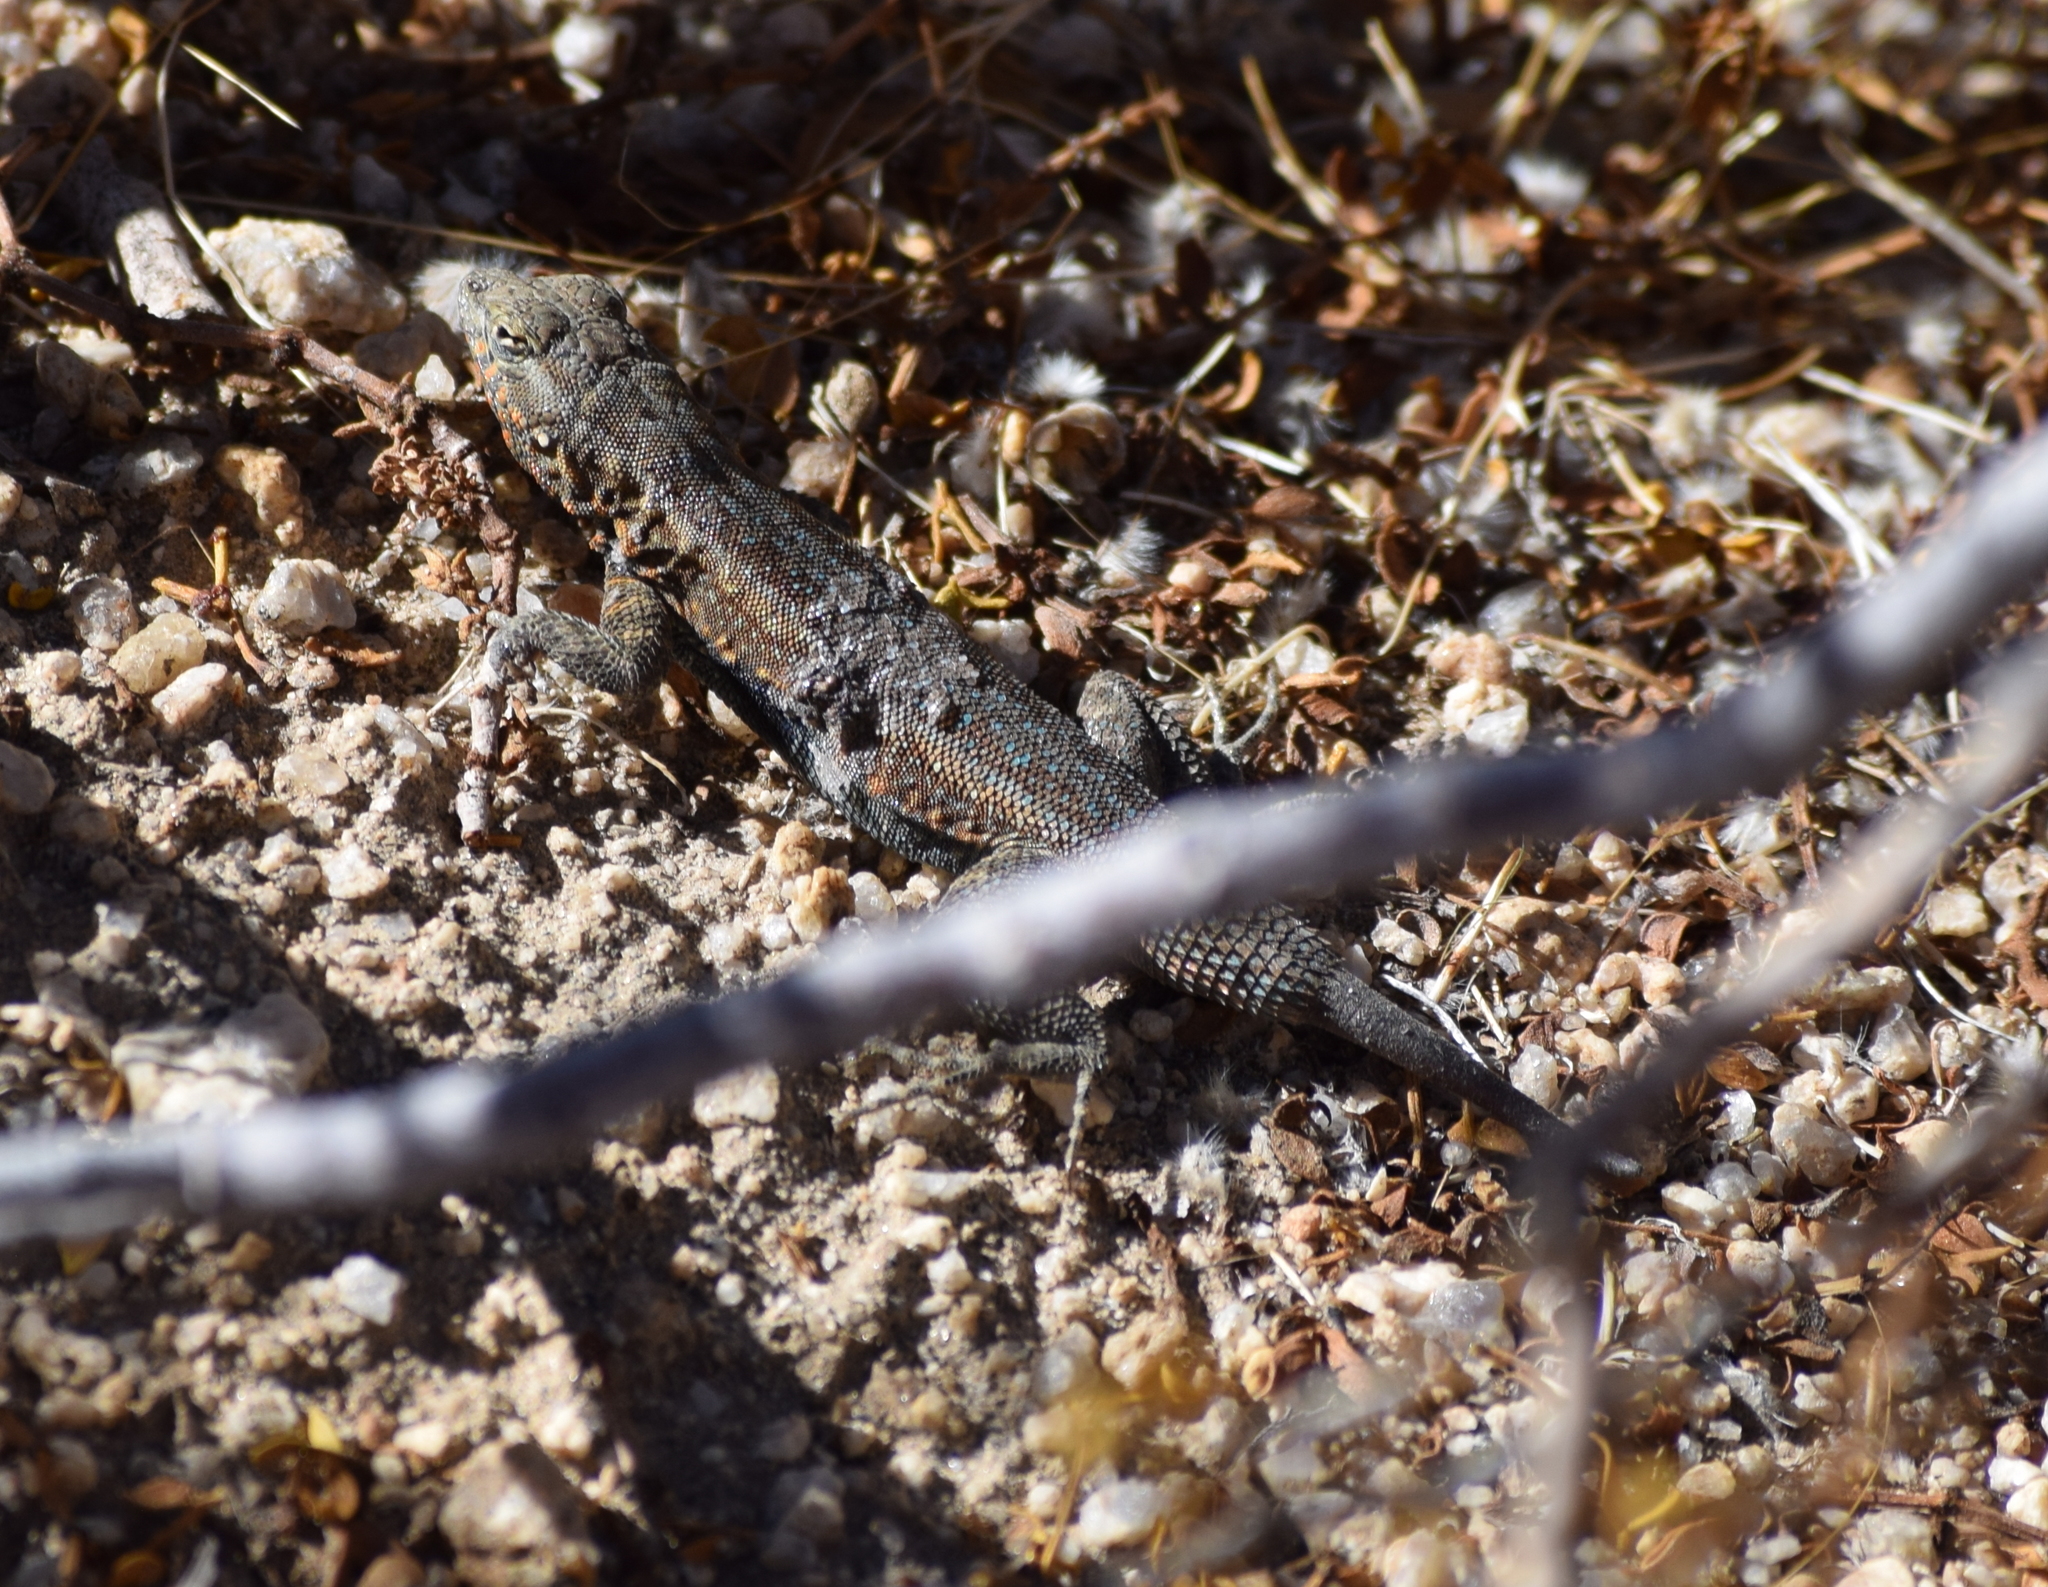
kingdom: Animalia
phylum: Chordata
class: Squamata
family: Phrynosomatidae
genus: Uta
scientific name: Uta stansburiana
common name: Side-blotched lizard
